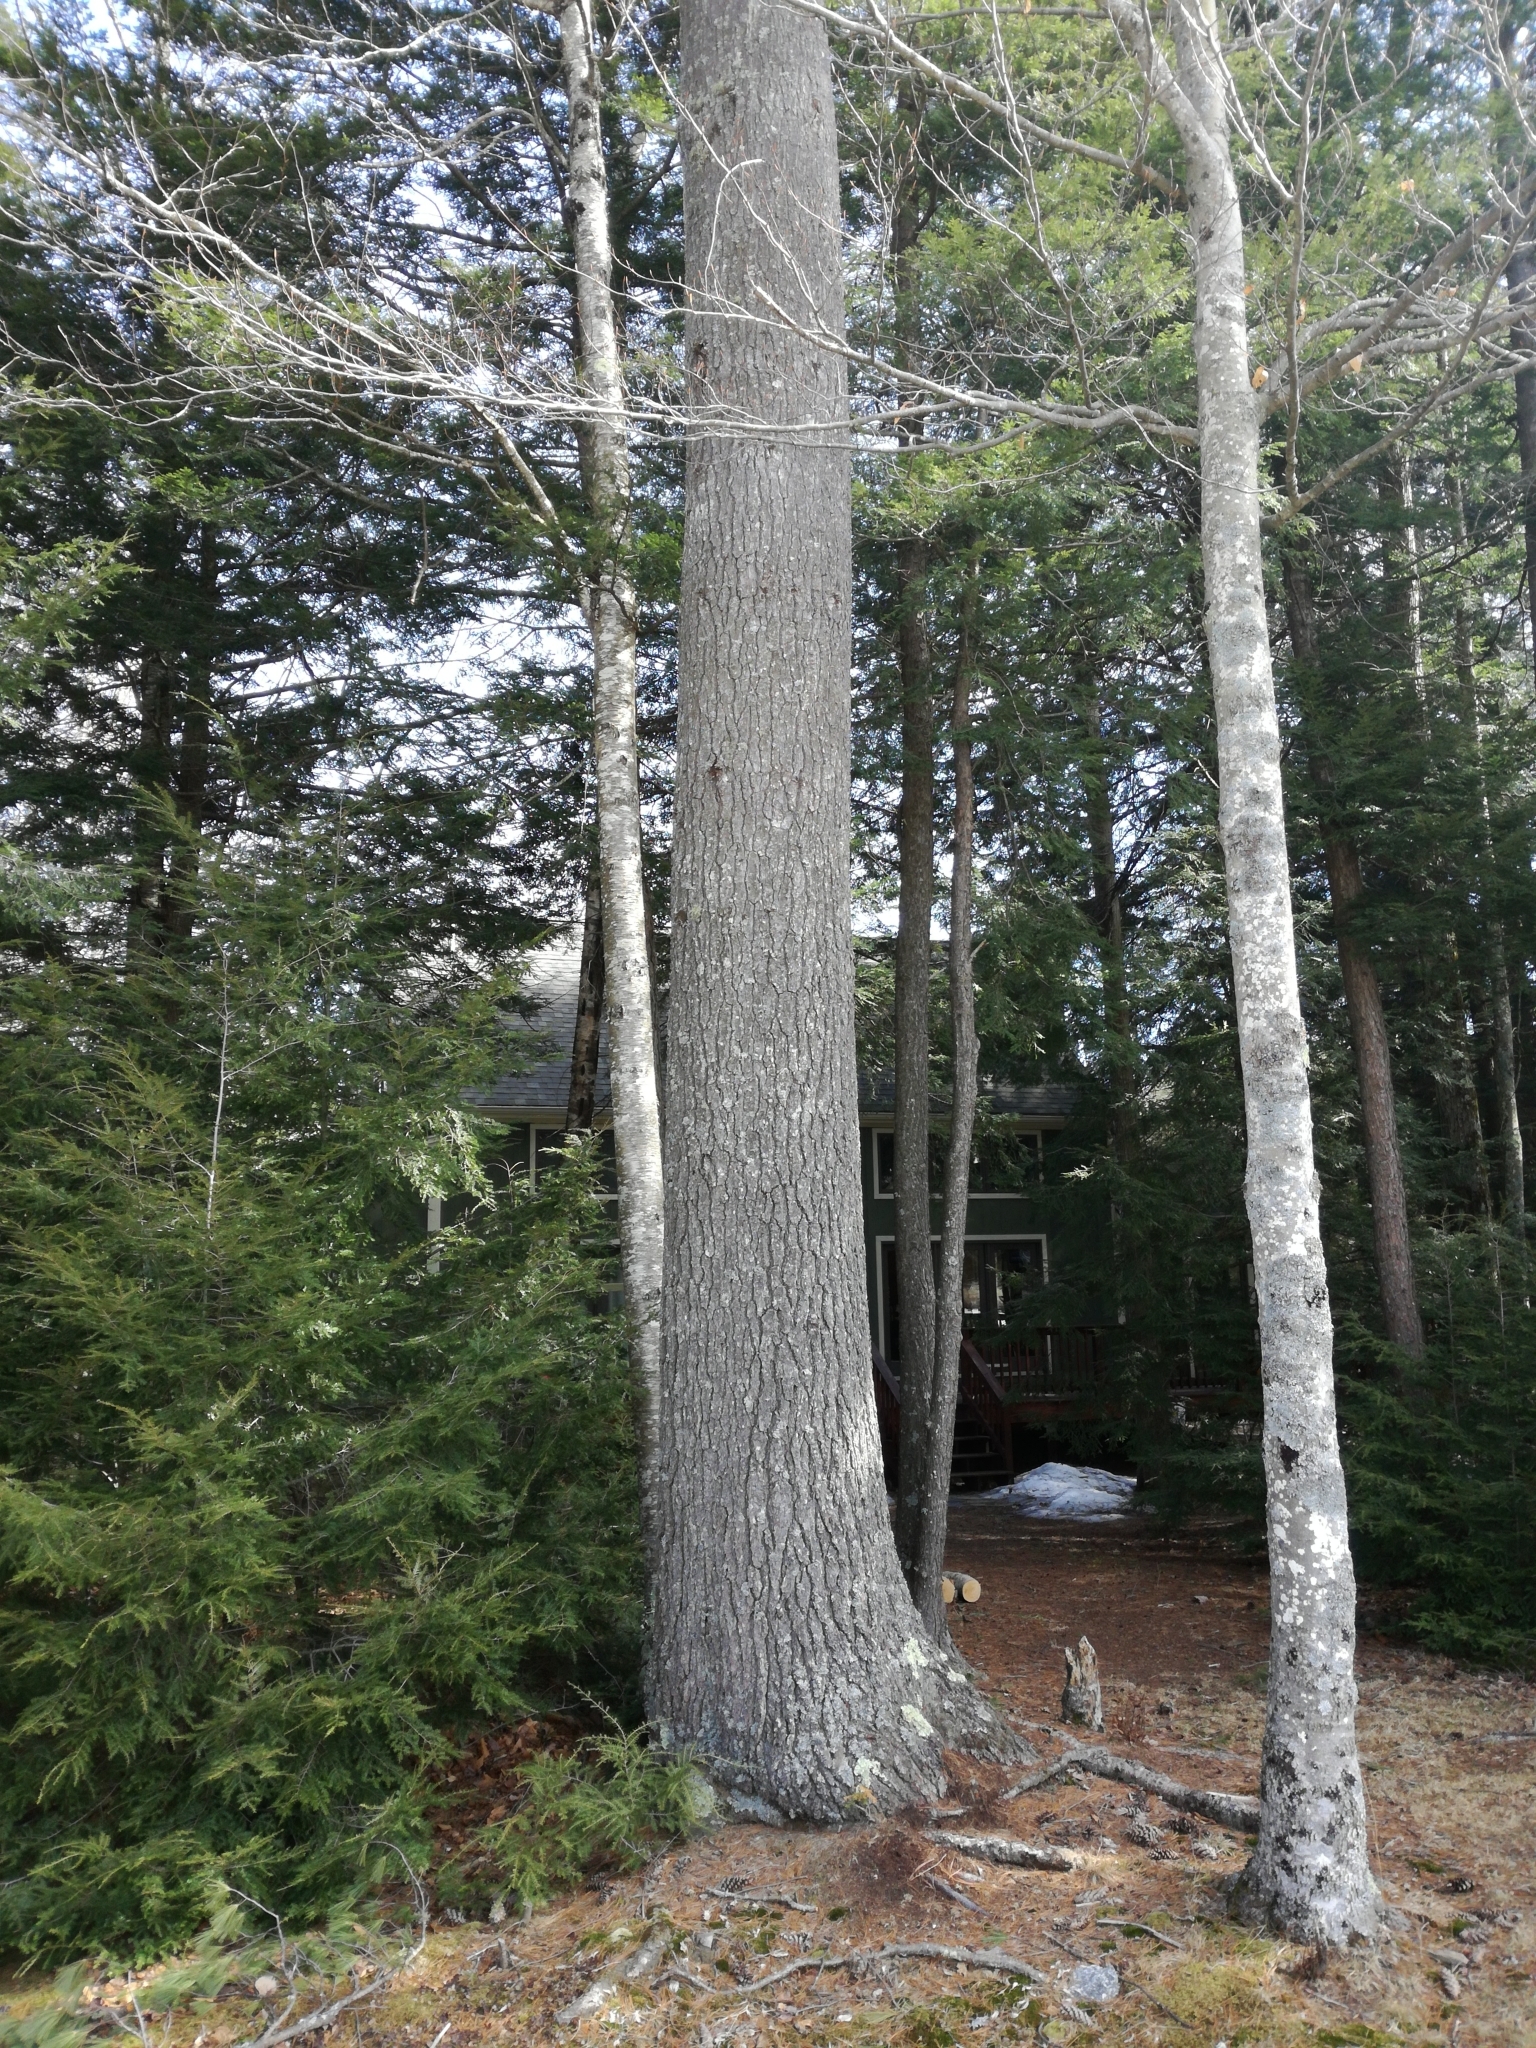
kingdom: Plantae
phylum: Tracheophyta
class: Pinopsida
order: Pinales
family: Pinaceae
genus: Pinus
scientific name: Pinus strobus
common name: Weymouth pine
